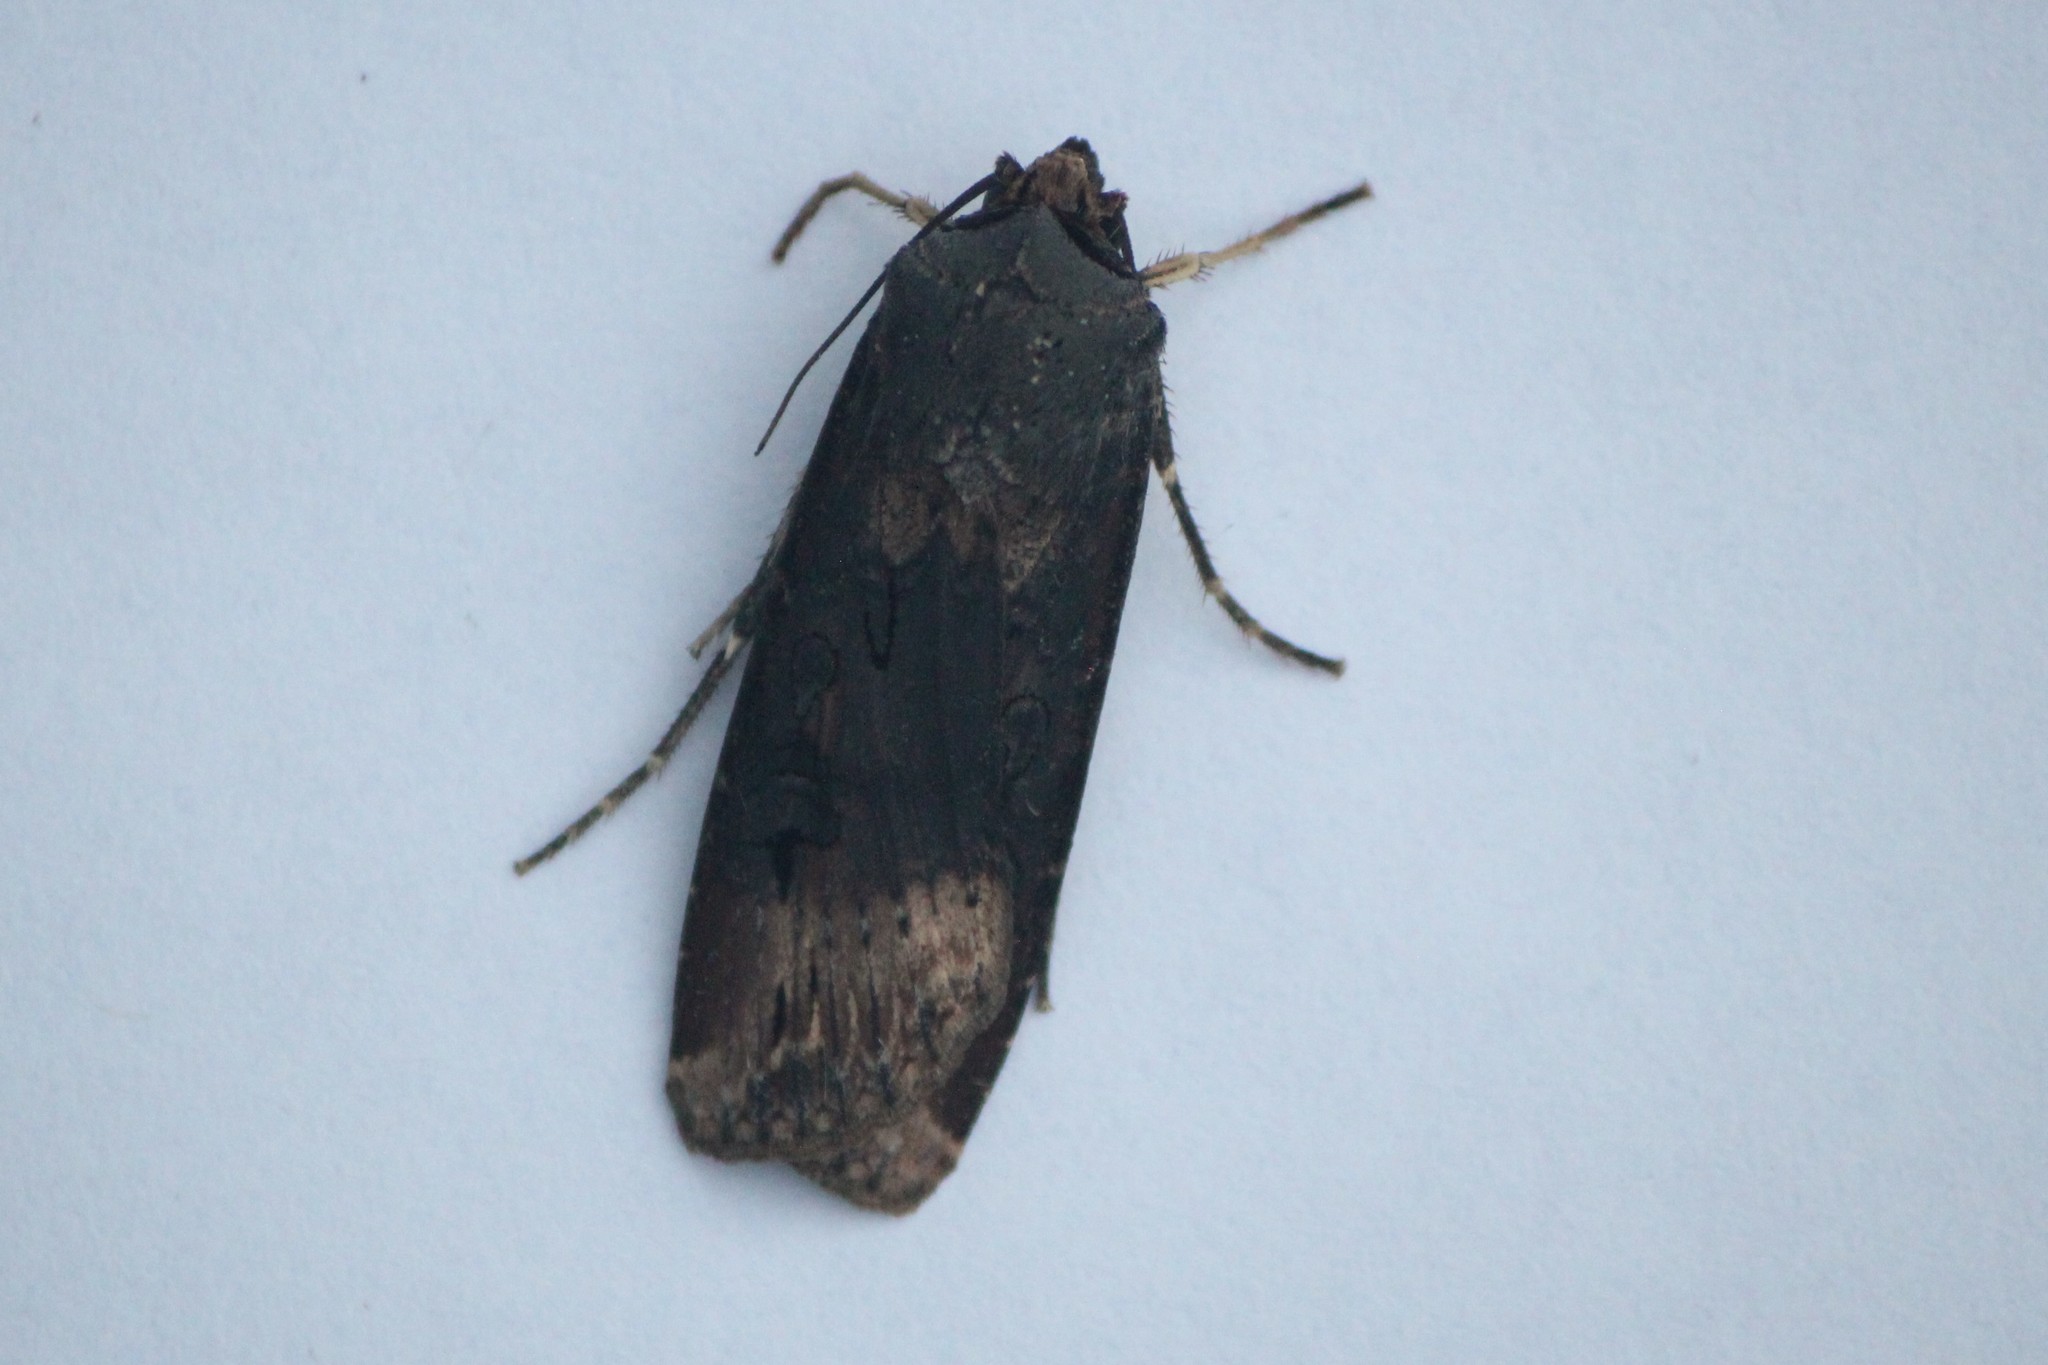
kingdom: Animalia
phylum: Arthropoda
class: Insecta
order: Lepidoptera
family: Noctuidae
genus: Agrotis
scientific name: Agrotis ipsilon
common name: Dark sword-grass
